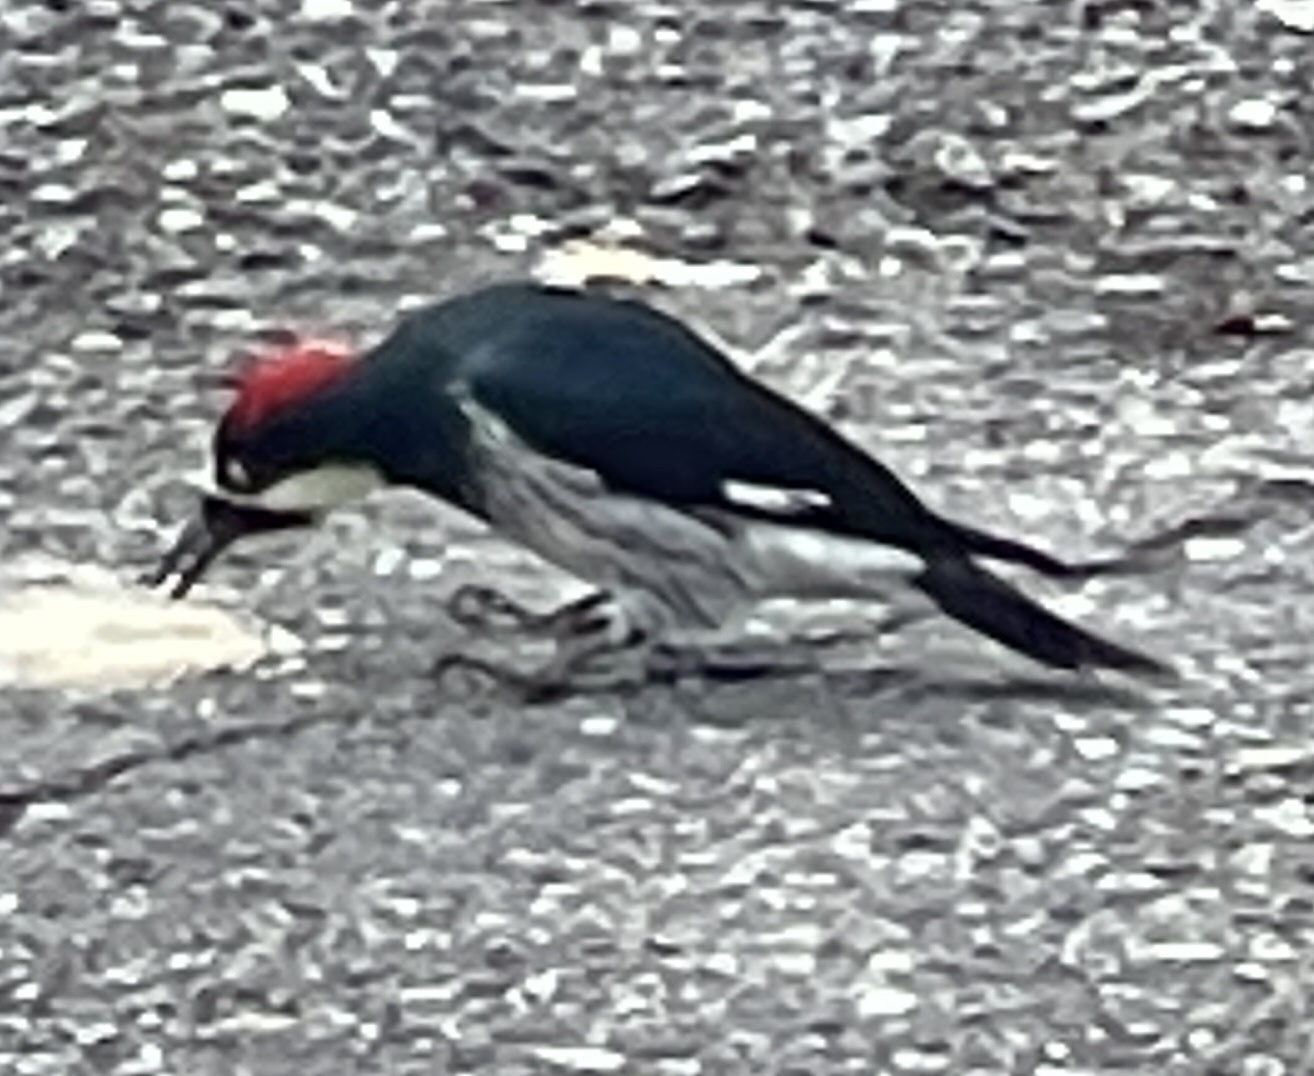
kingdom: Animalia
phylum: Chordata
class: Aves
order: Piciformes
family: Picidae
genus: Melanerpes
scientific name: Melanerpes formicivorus
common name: Acorn woodpecker
